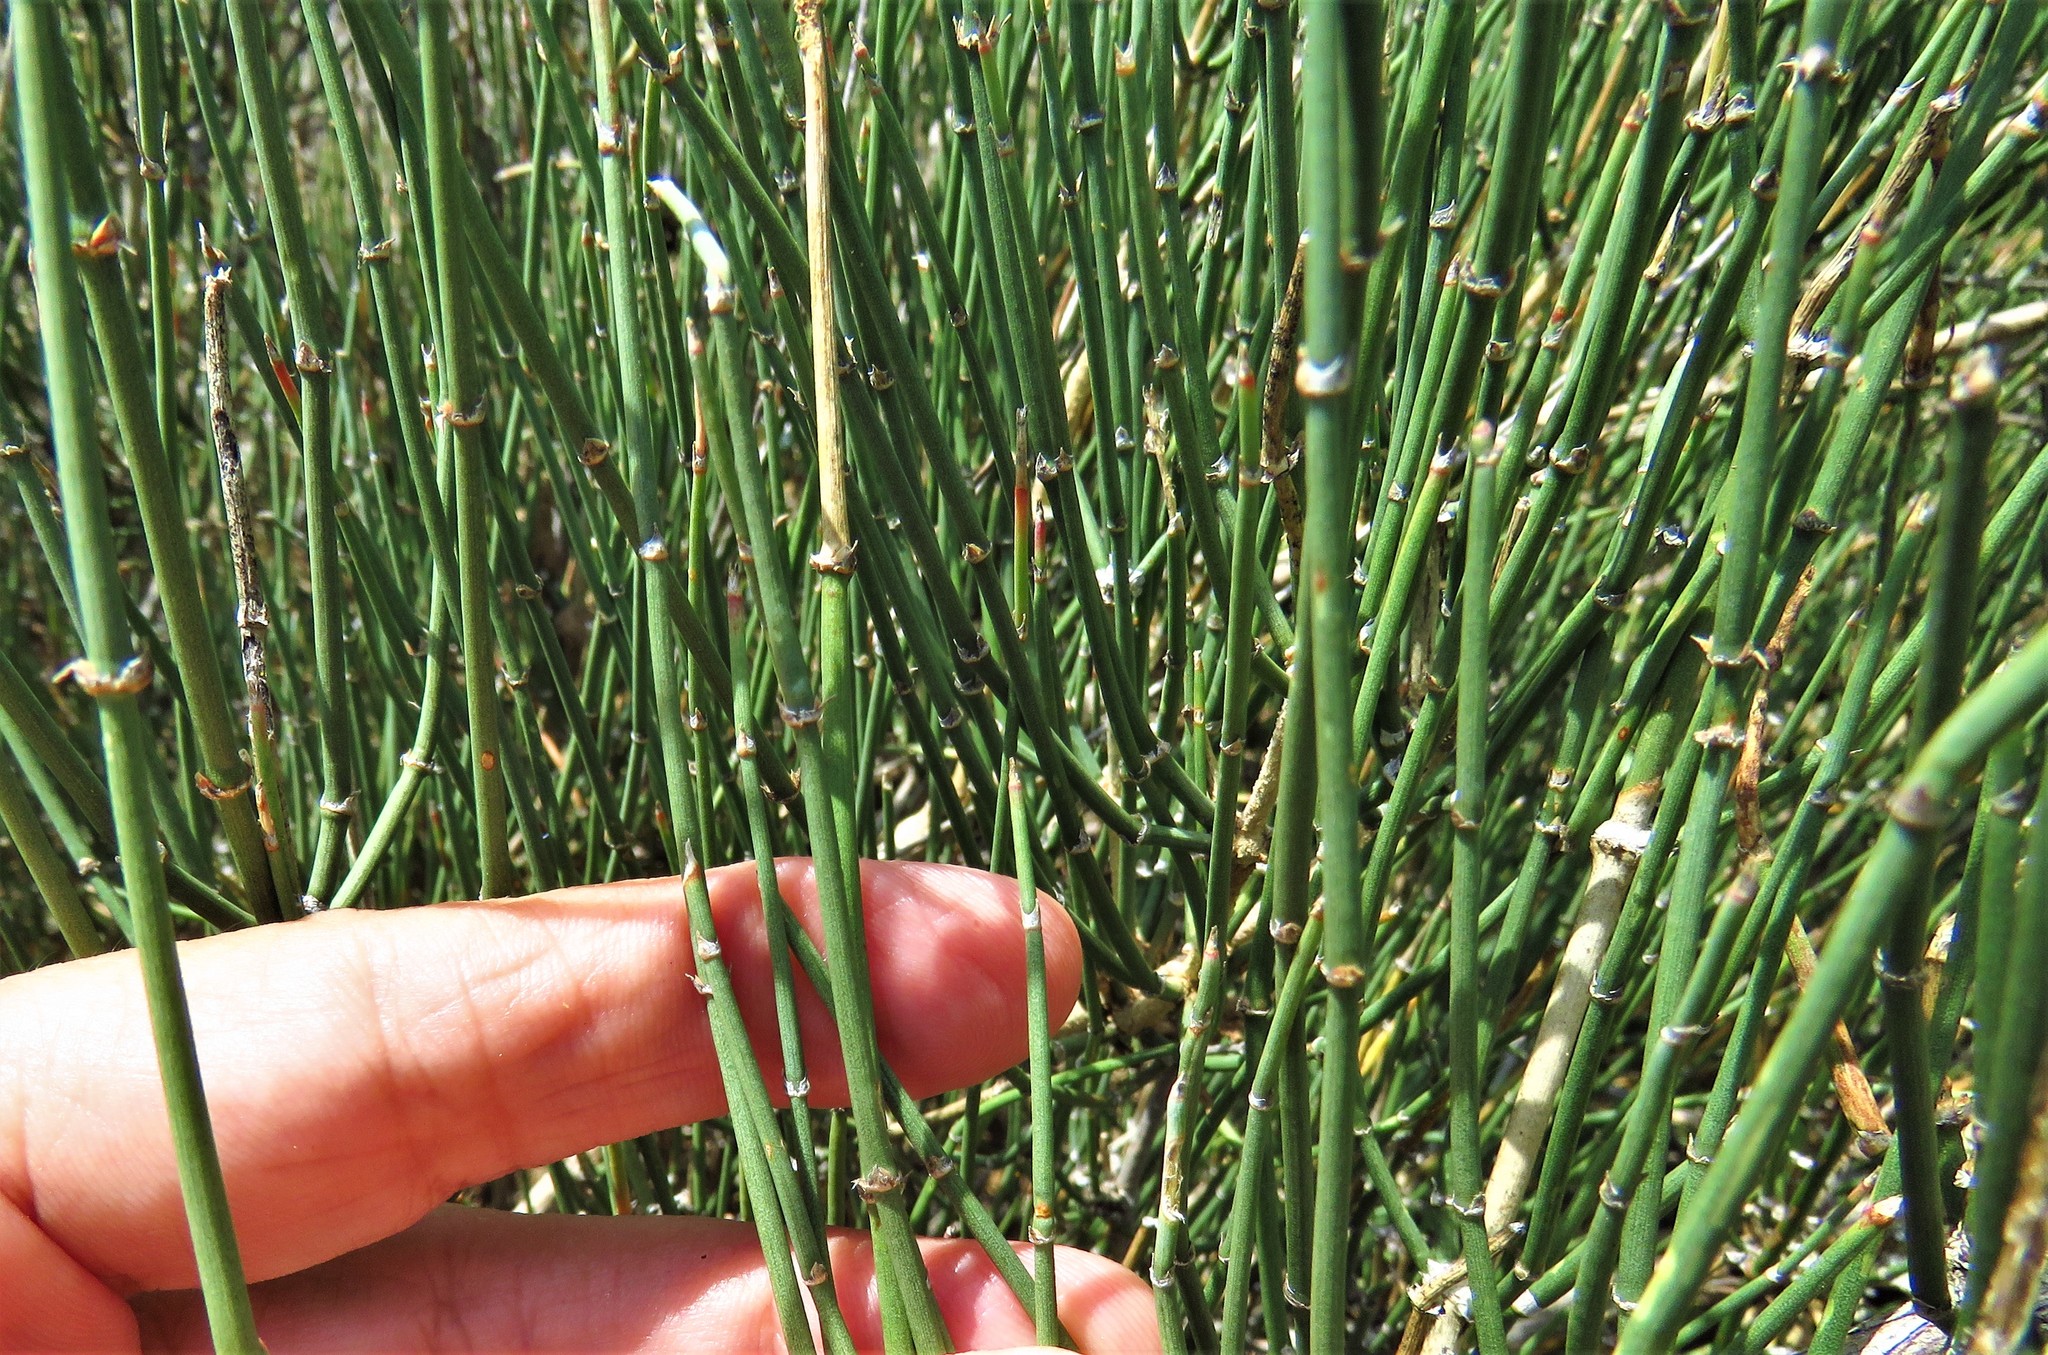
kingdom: Plantae
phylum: Tracheophyta
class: Gnetopsida
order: Ephedrales
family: Ephedraceae
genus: Ephedra
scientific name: Ephedra antisyphilitica
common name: Clipweed
